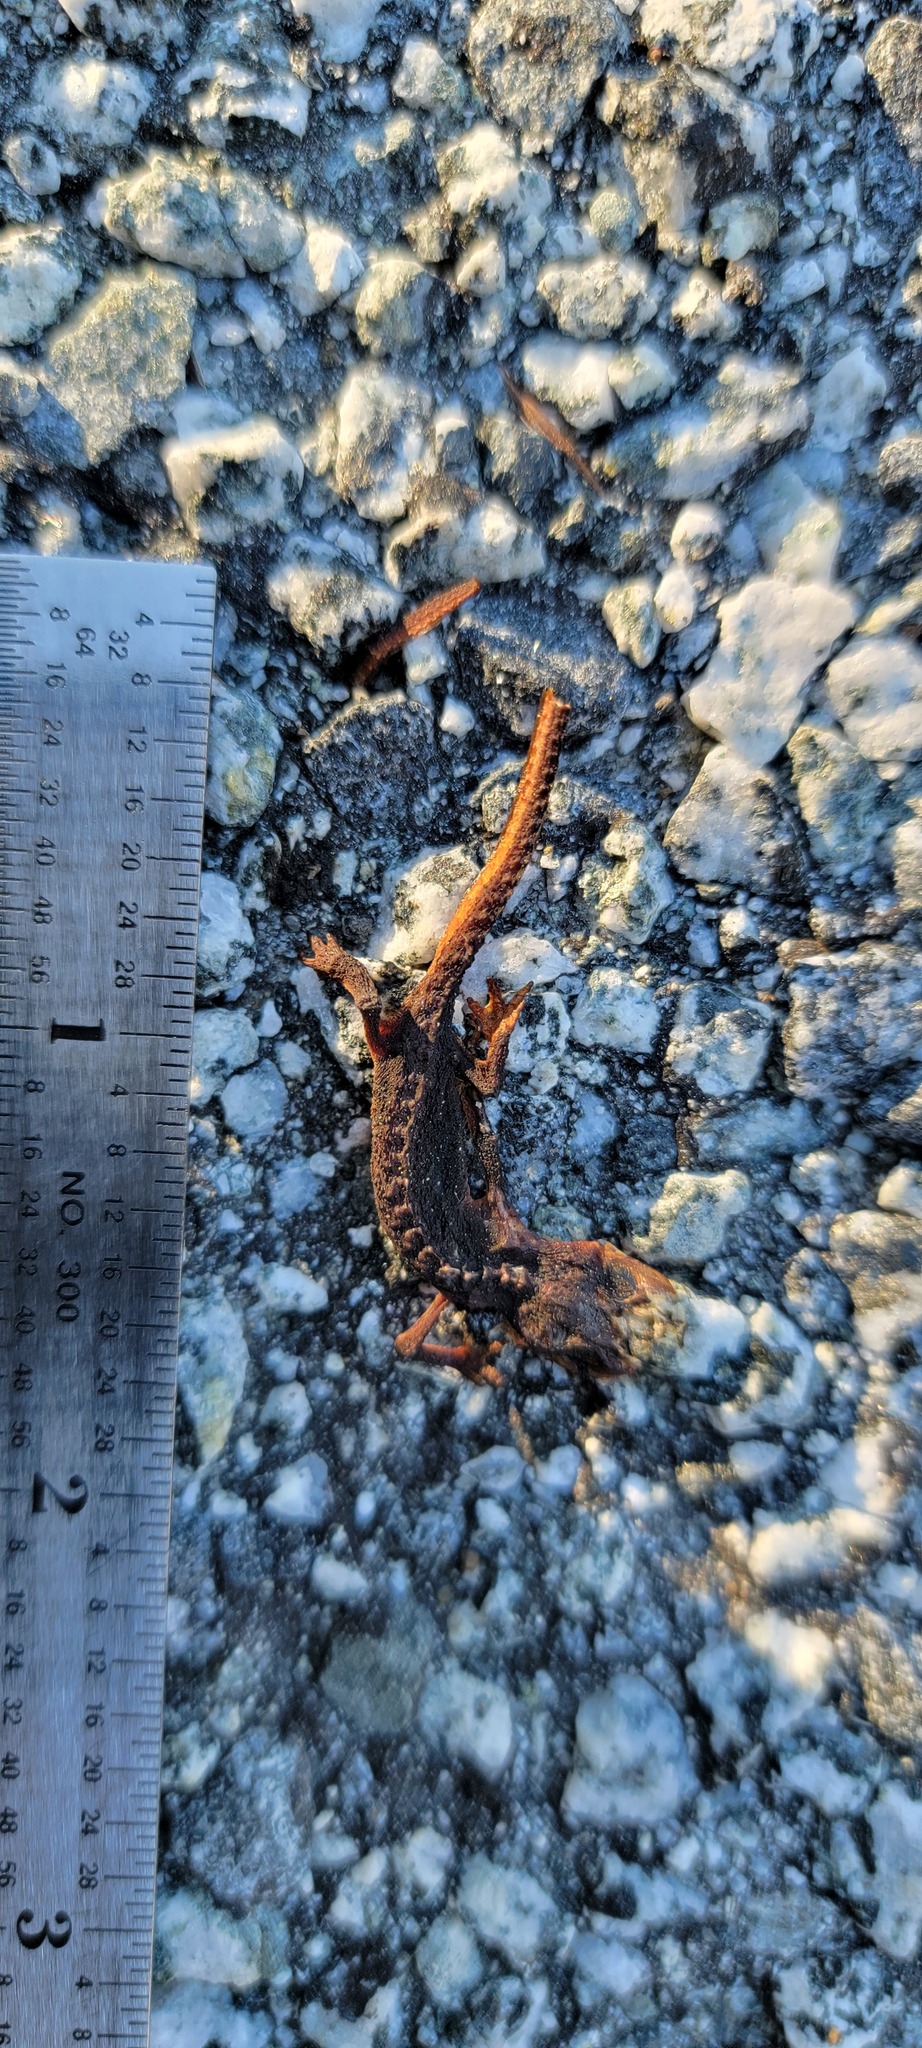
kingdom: Animalia
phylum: Chordata
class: Amphibia
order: Caudata
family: Salamandridae
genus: Taricha
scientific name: Taricha
